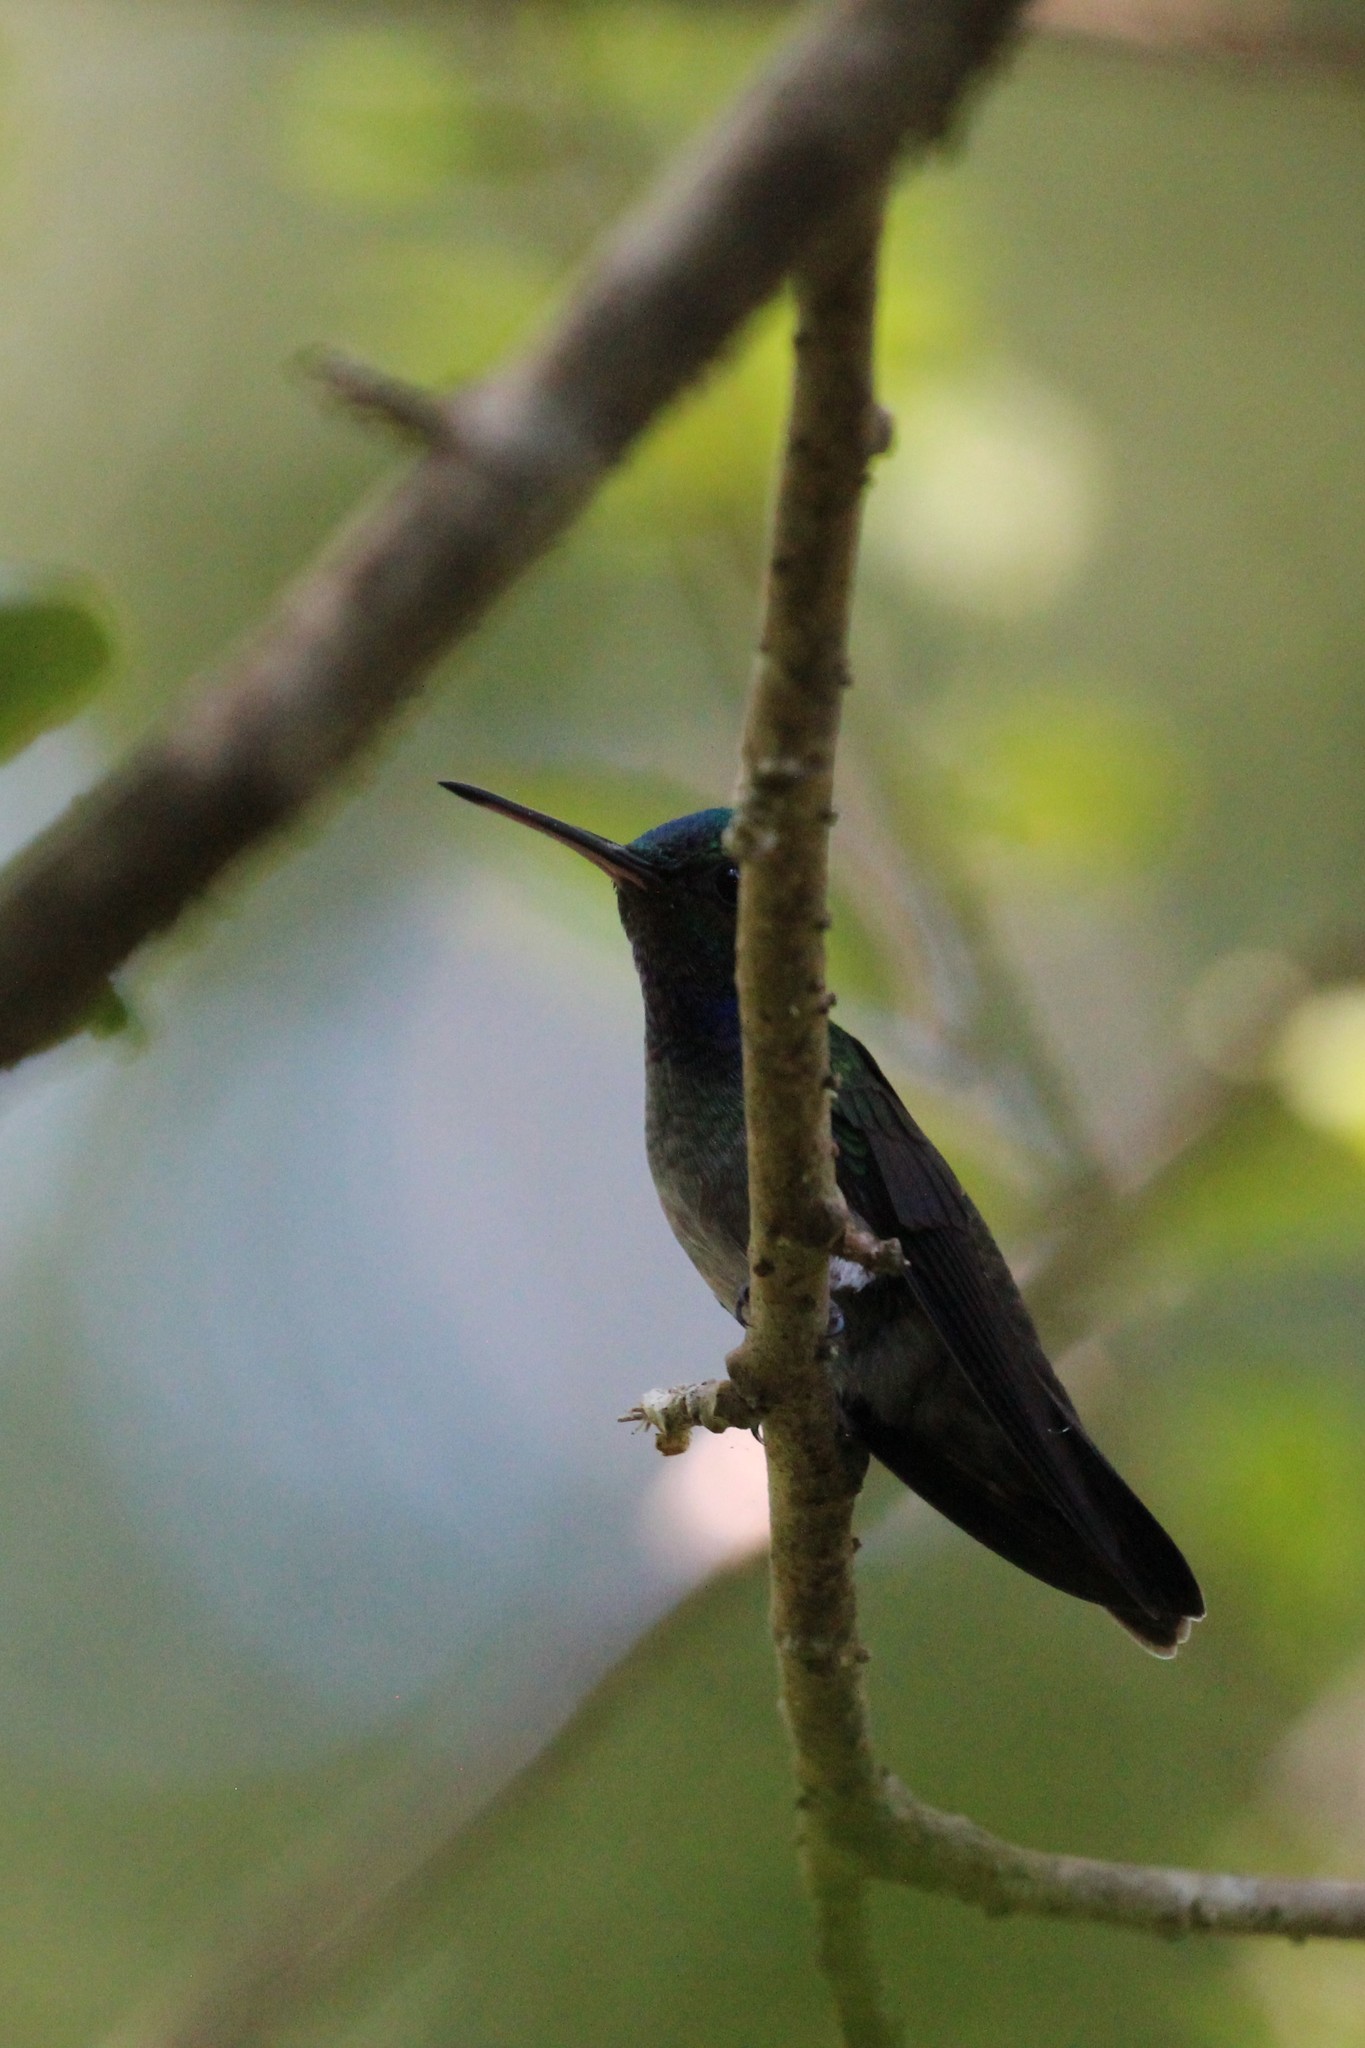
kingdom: Animalia
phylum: Chordata
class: Aves
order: Apodiformes
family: Trochilidae
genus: Polyerata
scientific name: Polyerata decora
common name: Charming hummingbird
